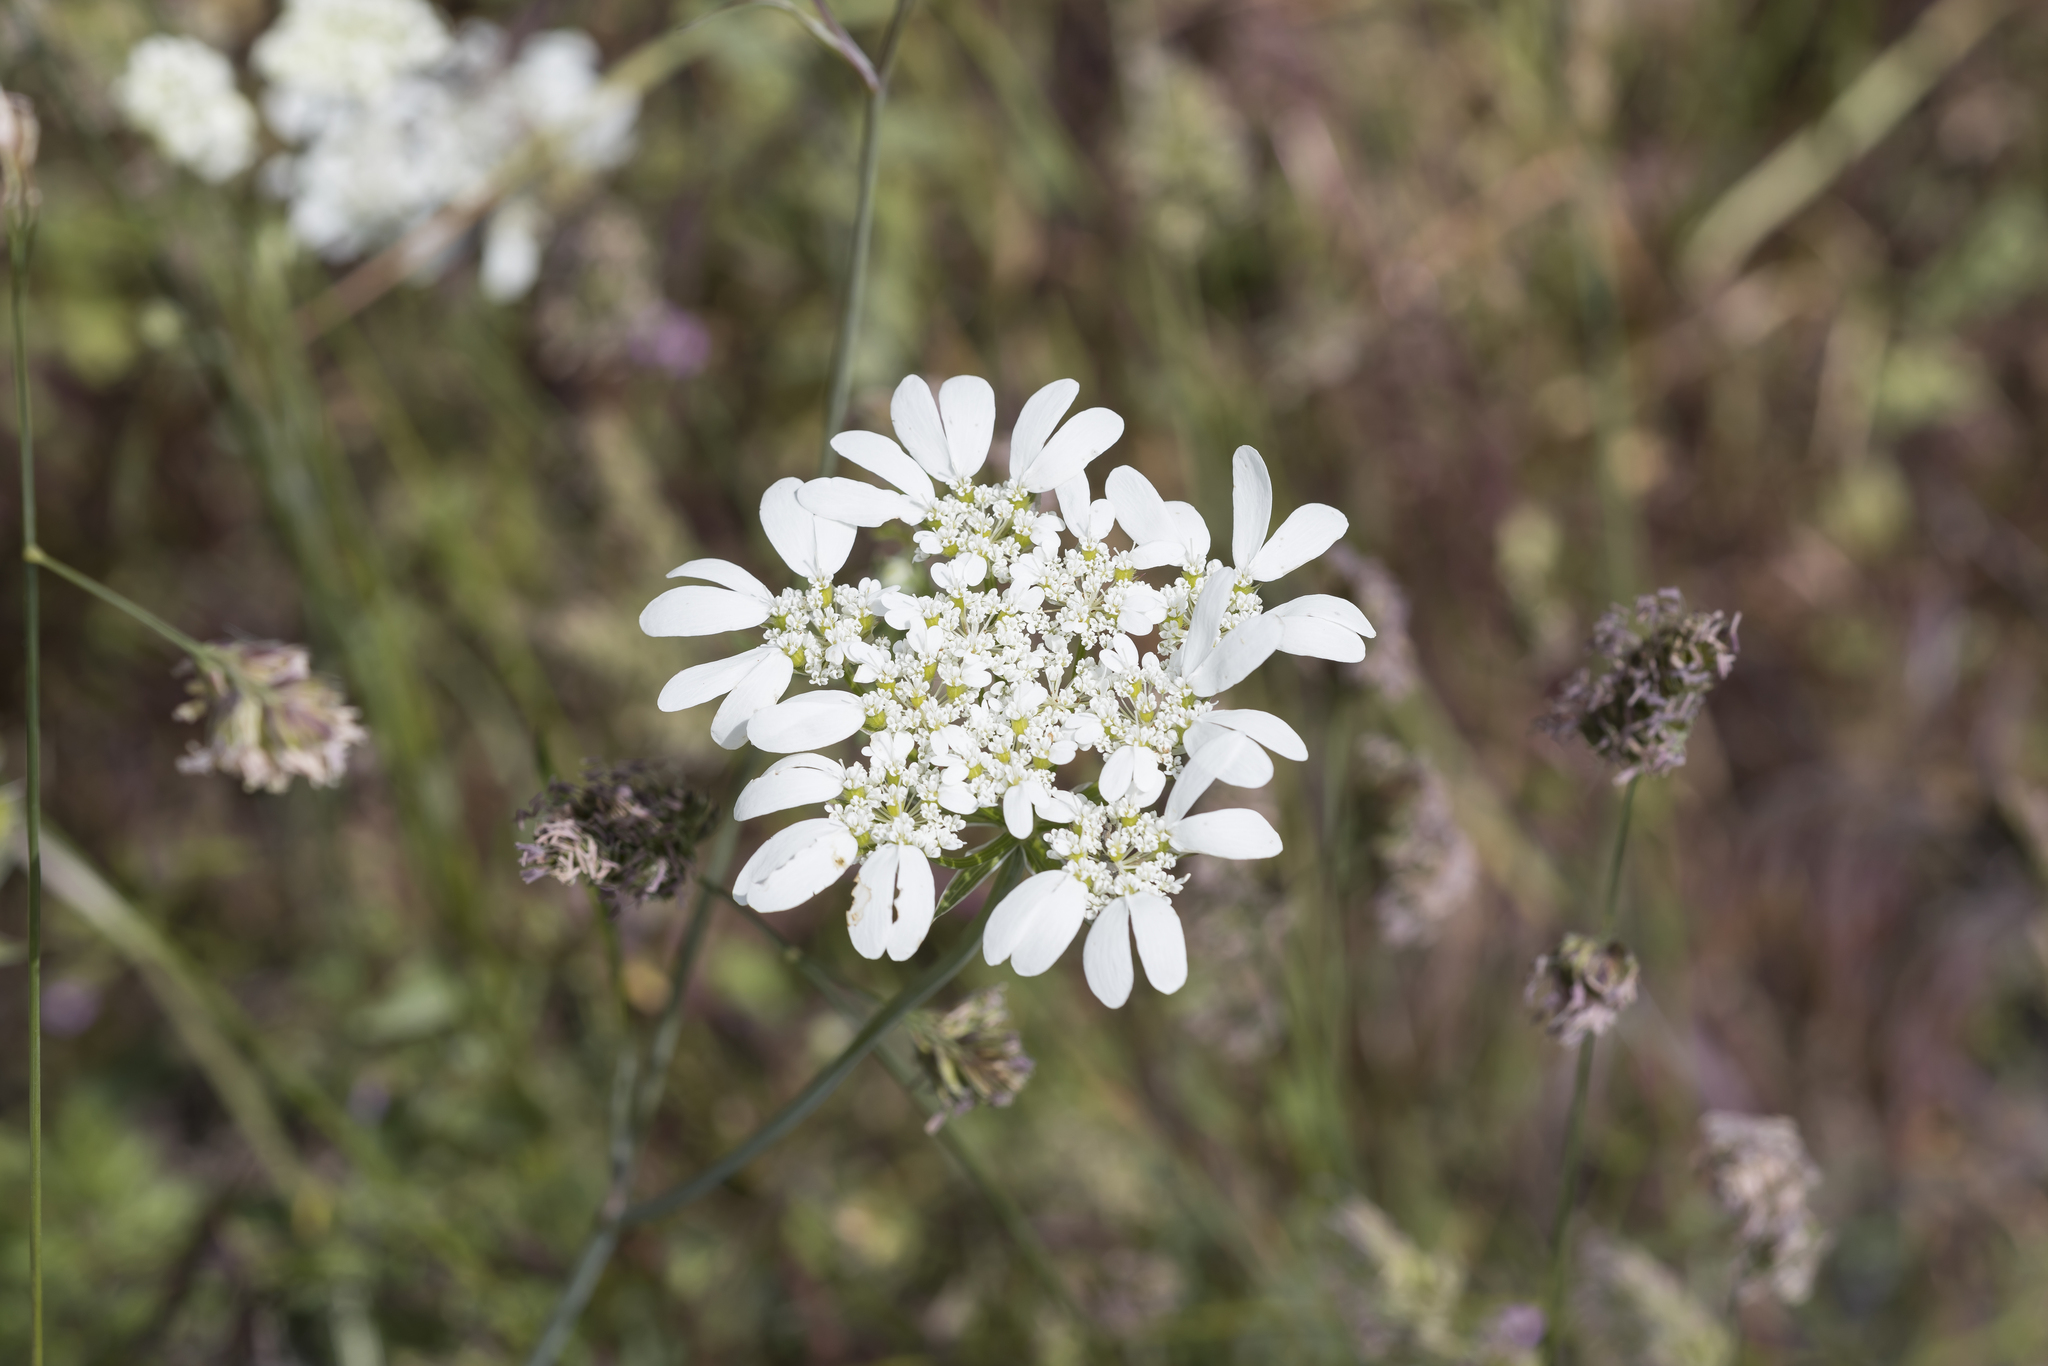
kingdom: Plantae
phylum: Tracheophyta
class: Magnoliopsida
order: Apiales
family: Apiaceae
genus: Orlaya
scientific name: Orlaya grandiflora
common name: White lace flower
